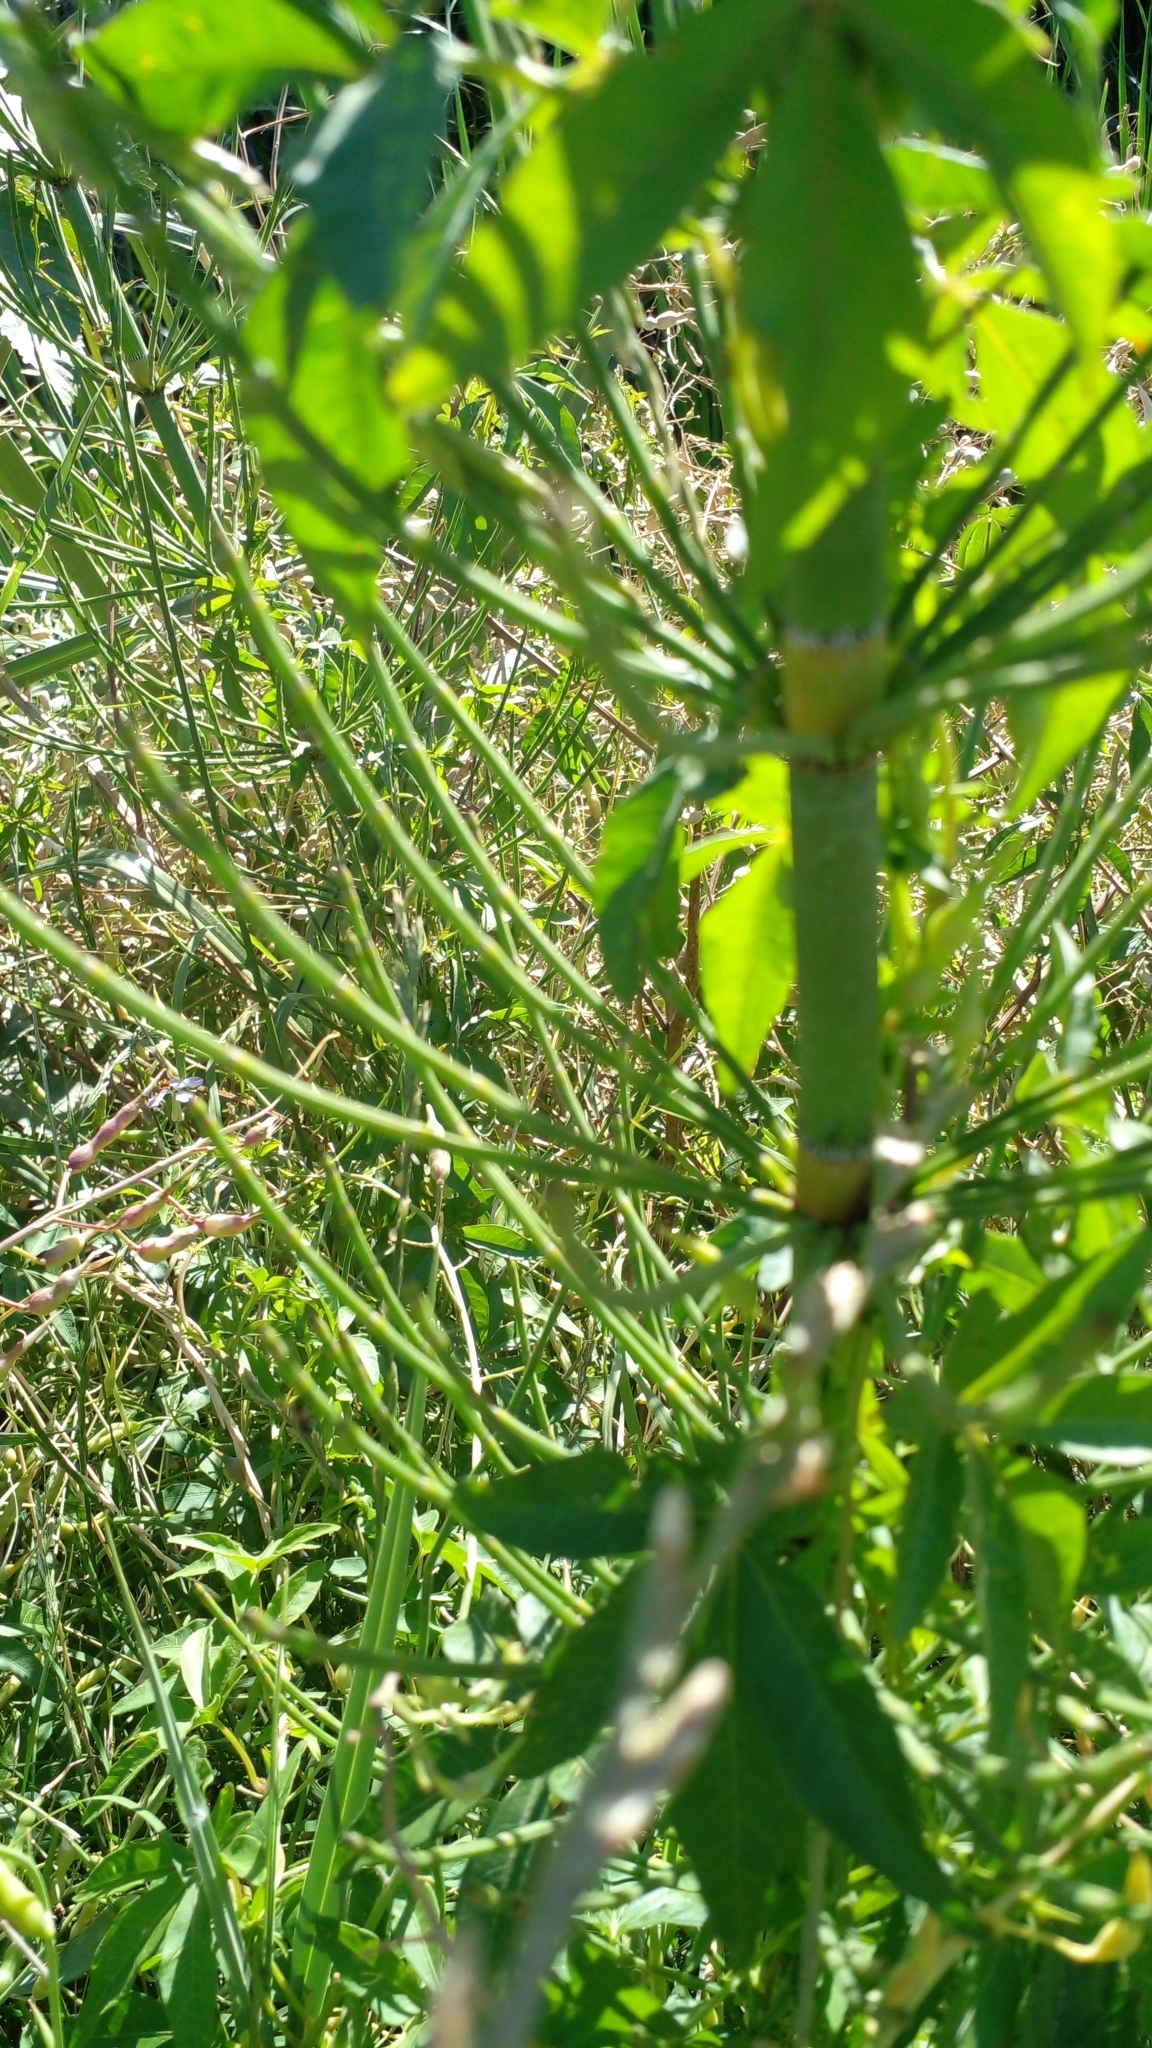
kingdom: Plantae
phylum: Tracheophyta
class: Polypodiopsida
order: Equisetales
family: Equisetaceae
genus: Equisetum
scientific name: Equisetum giganteum
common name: Giant horsetail
